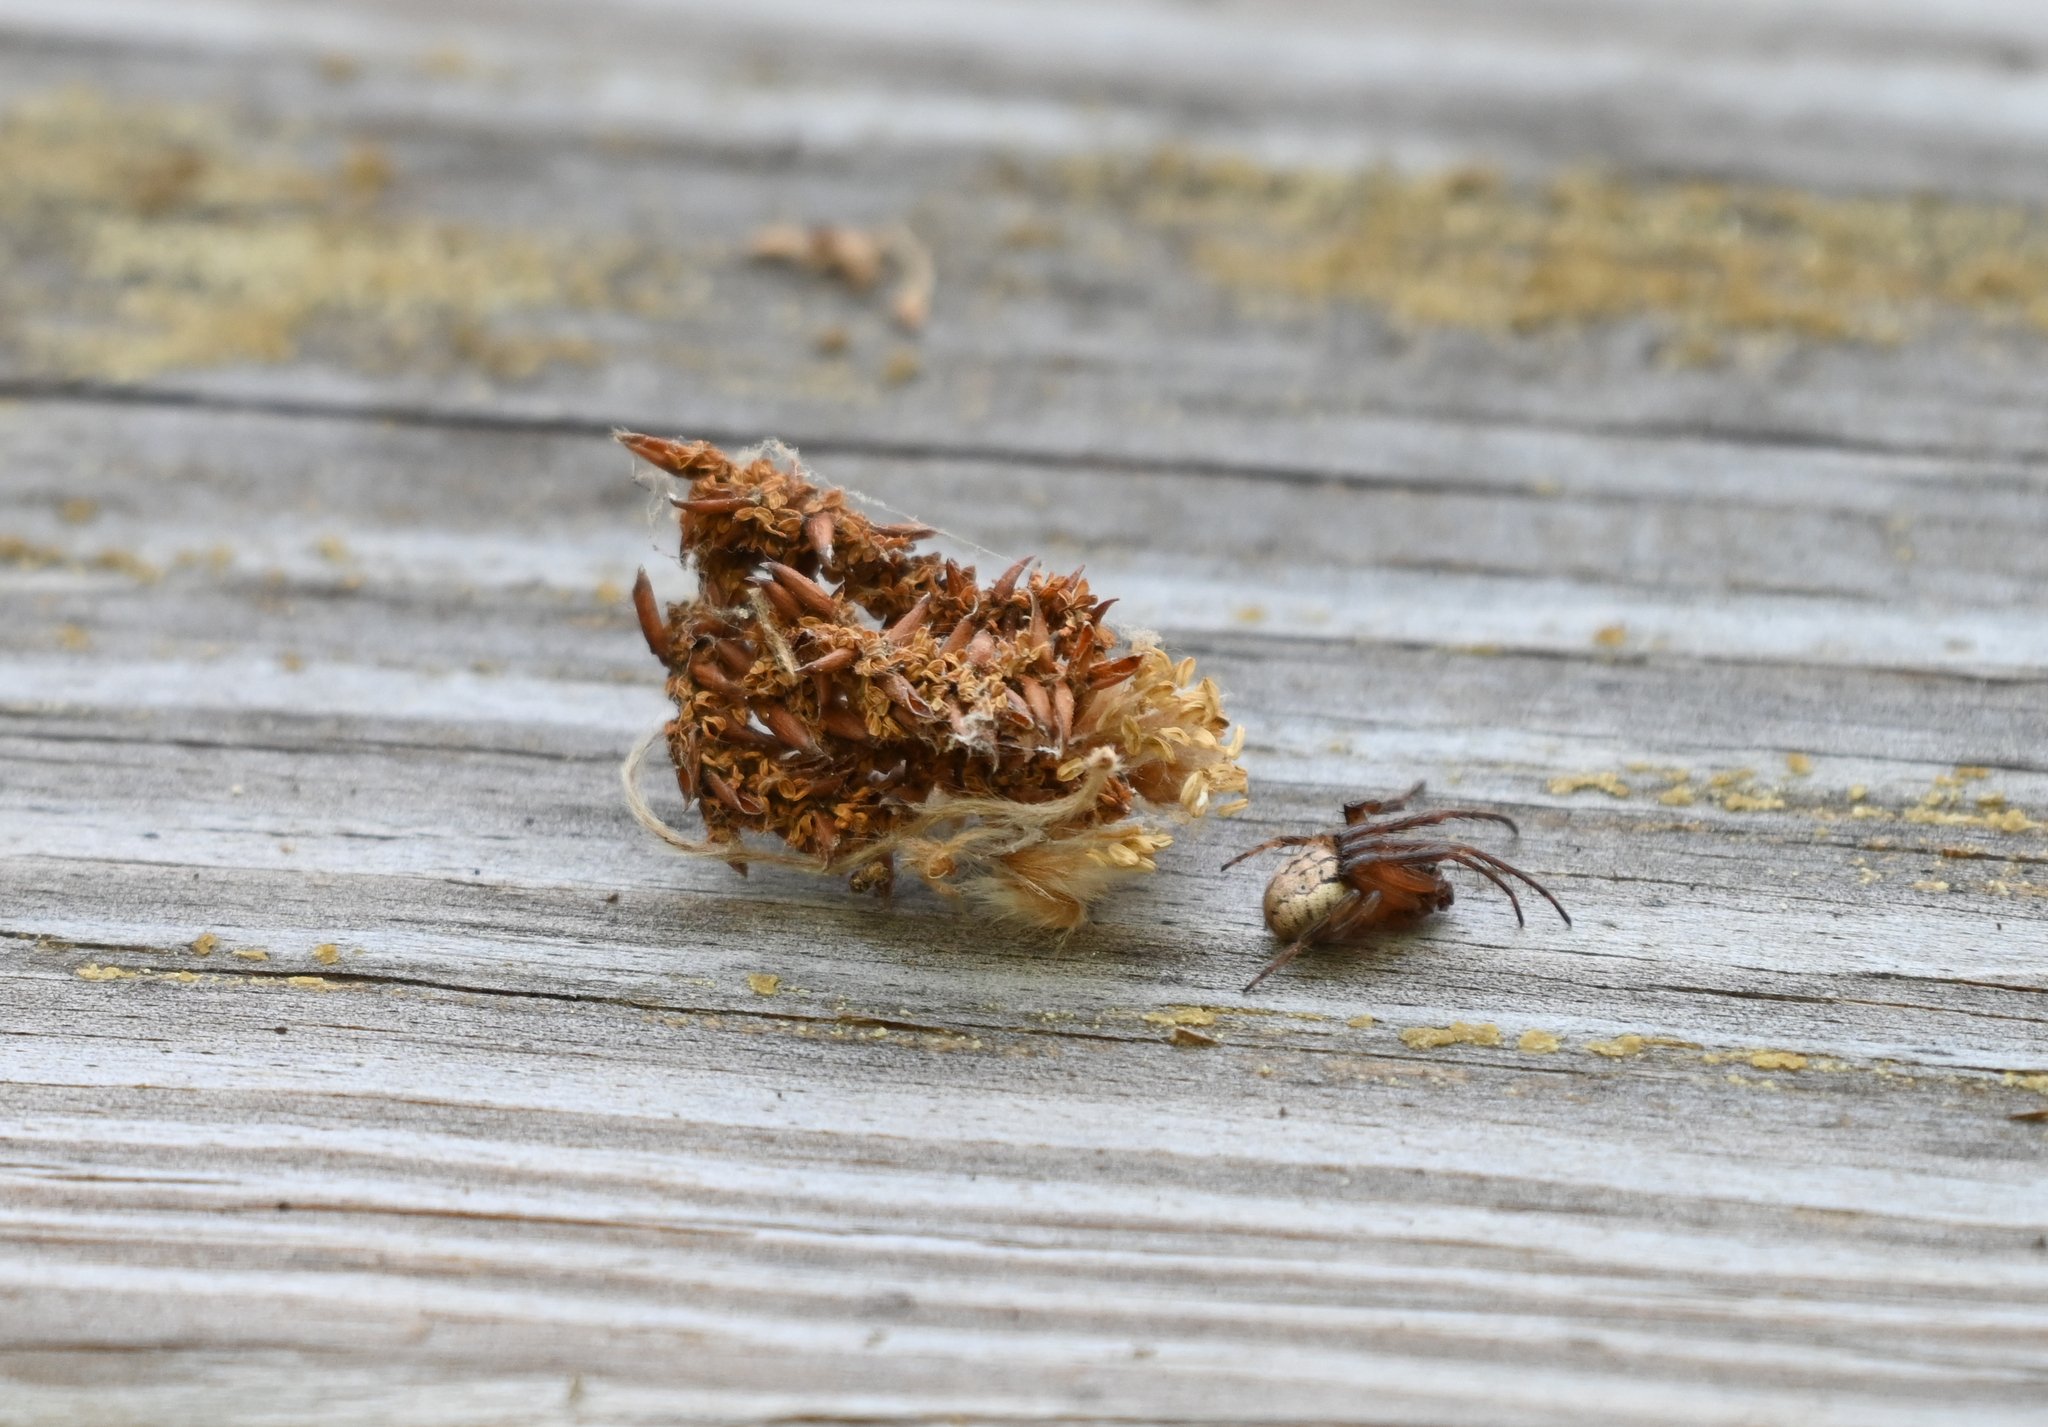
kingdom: Animalia
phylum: Arthropoda
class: Arachnida
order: Araneae
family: Araneidae
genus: Metazygia
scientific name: Metazygia wittfeldae
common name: Orb weavers
